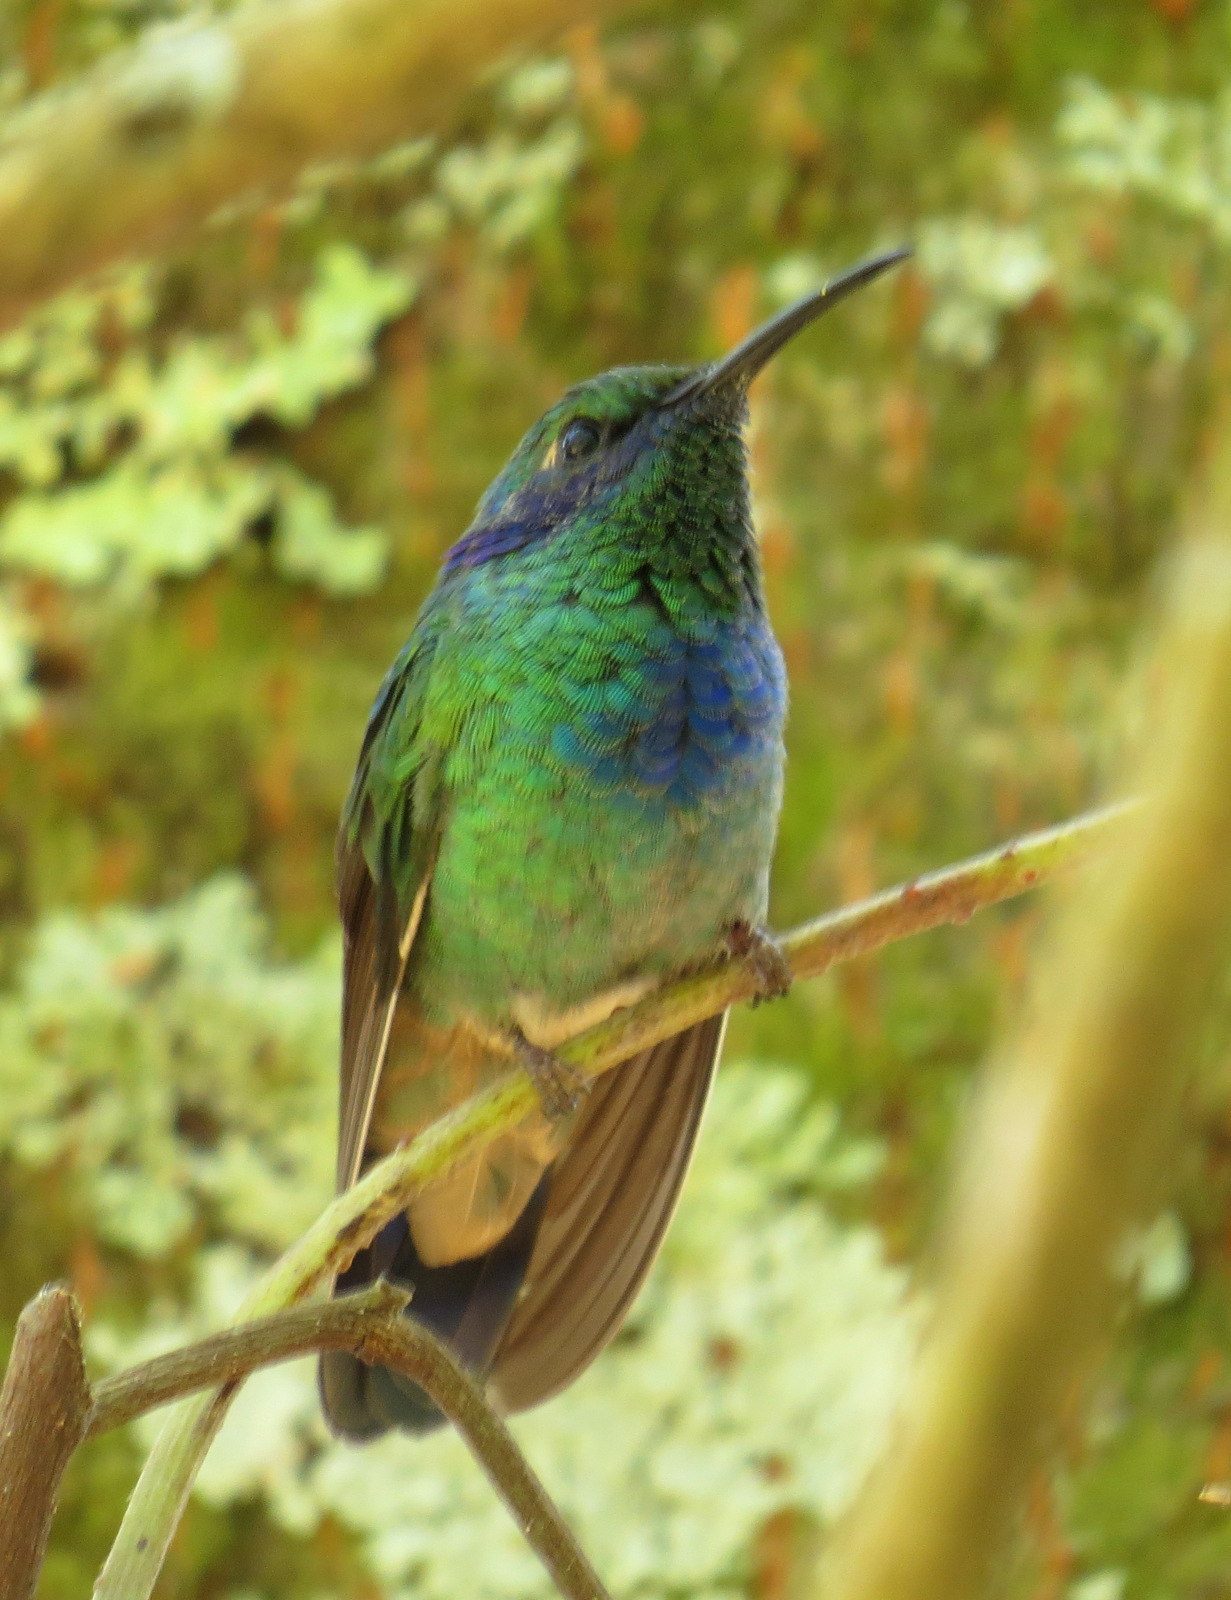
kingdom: Animalia
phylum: Chordata
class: Aves
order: Apodiformes
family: Trochilidae
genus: Colibri
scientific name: Colibri thalassinus
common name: Green violetear
